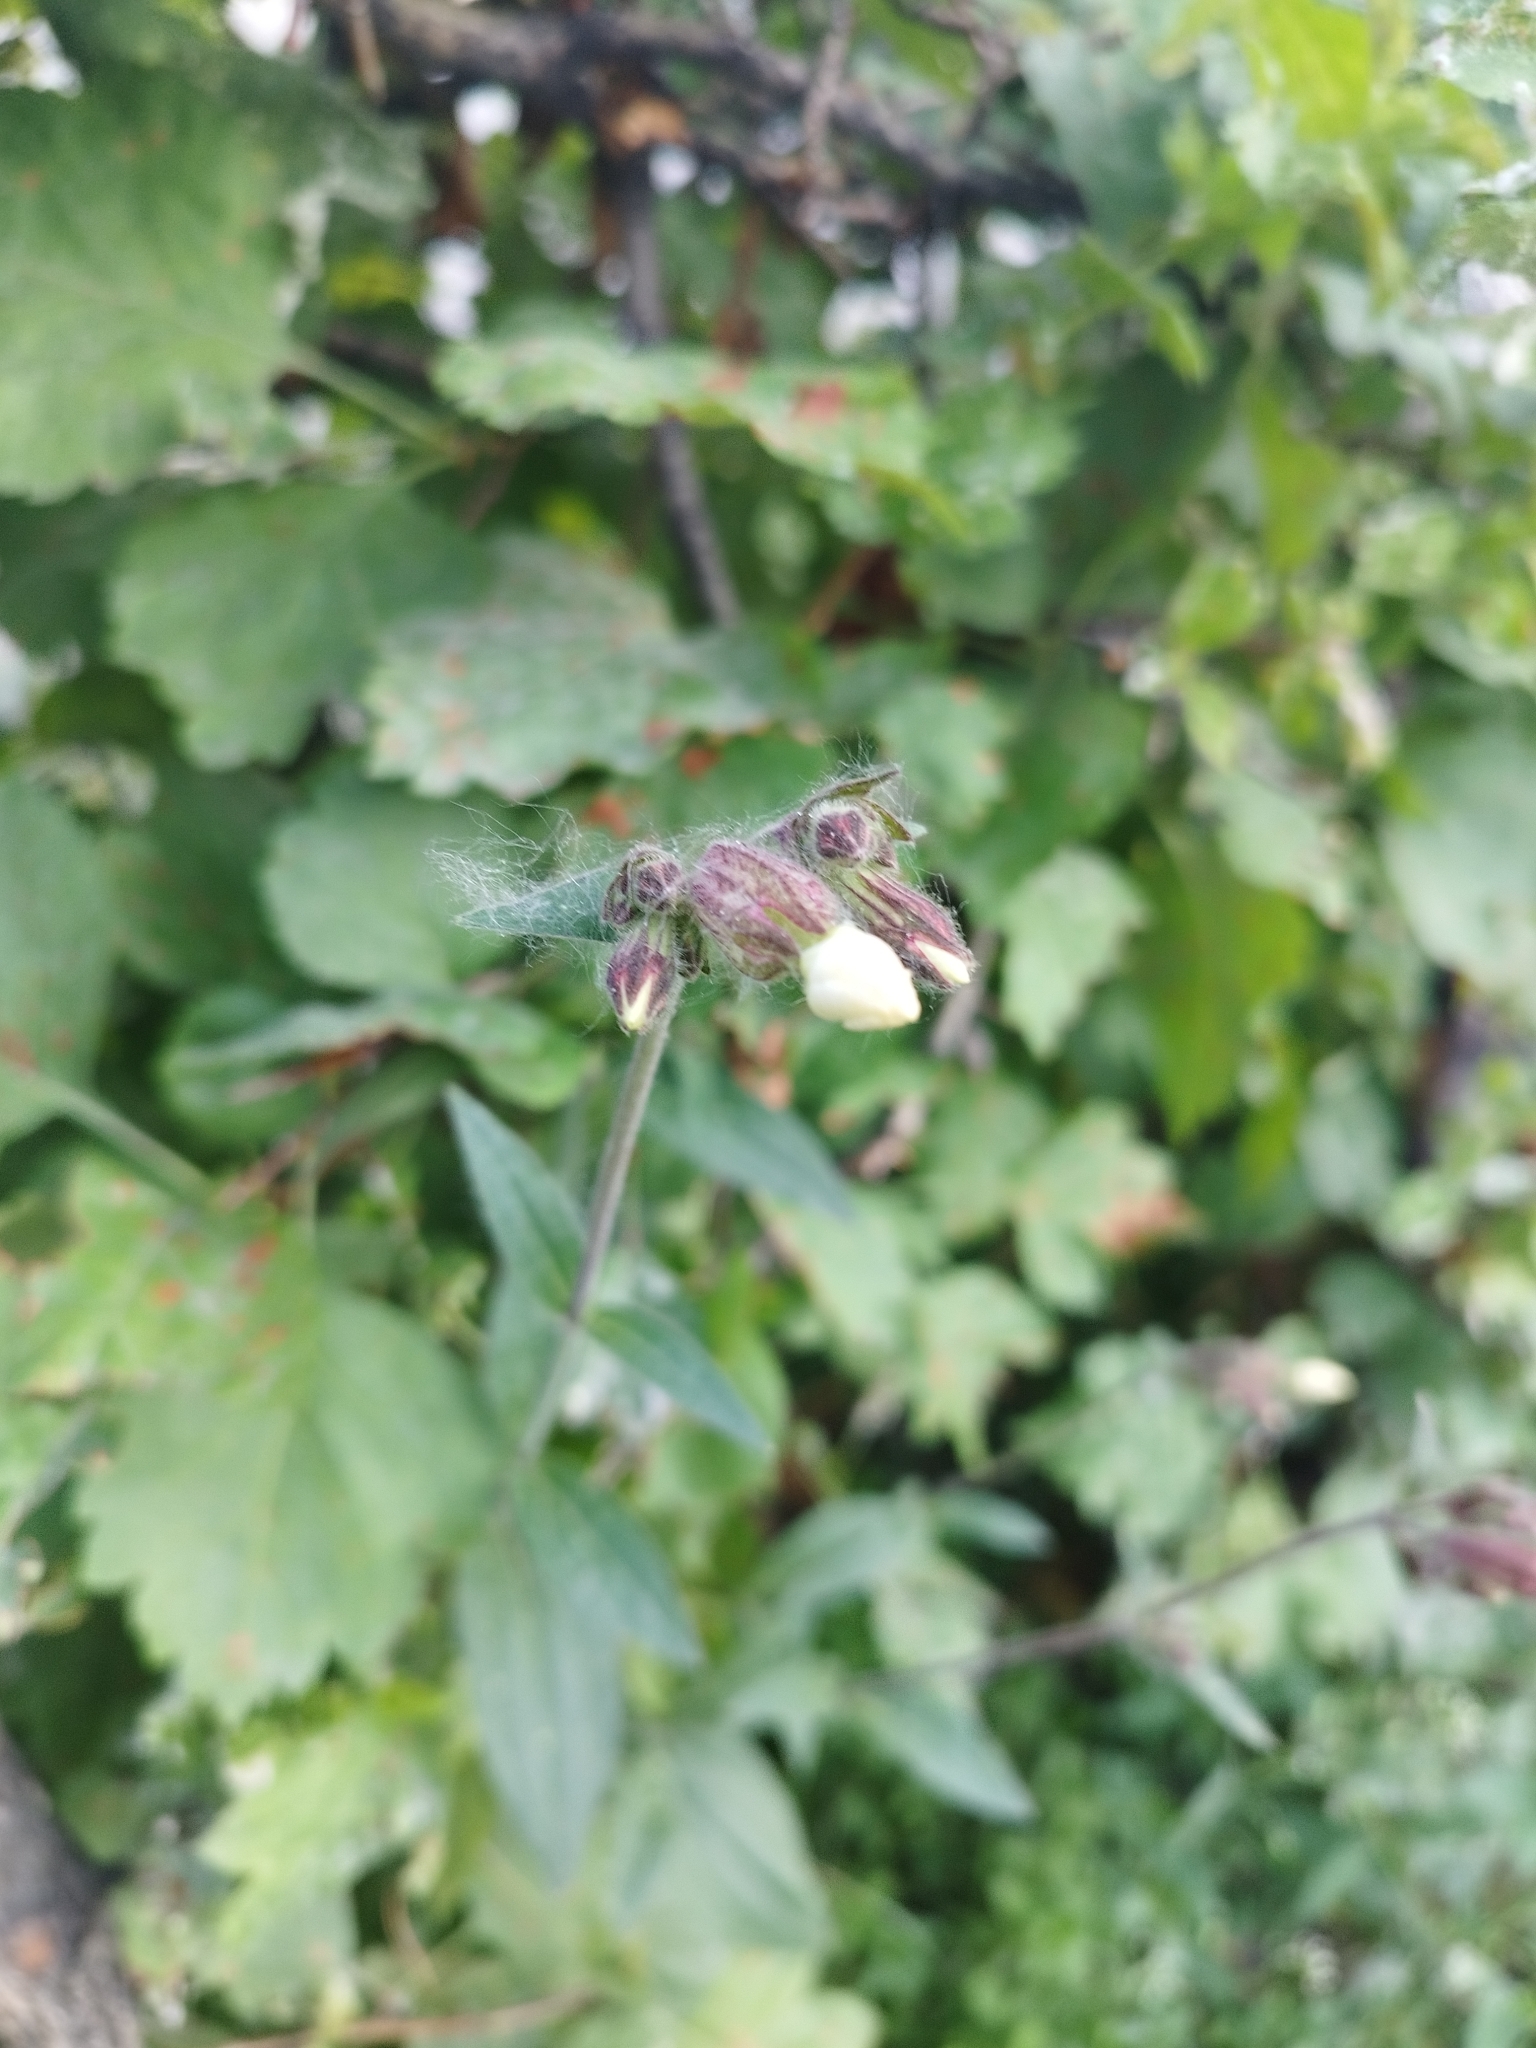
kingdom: Plantae
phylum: Tracheophyta
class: Magnoliopsida
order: Caryophyllales
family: Caryophyllaceae
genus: Silene
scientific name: Silene latifolia
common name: White campion
